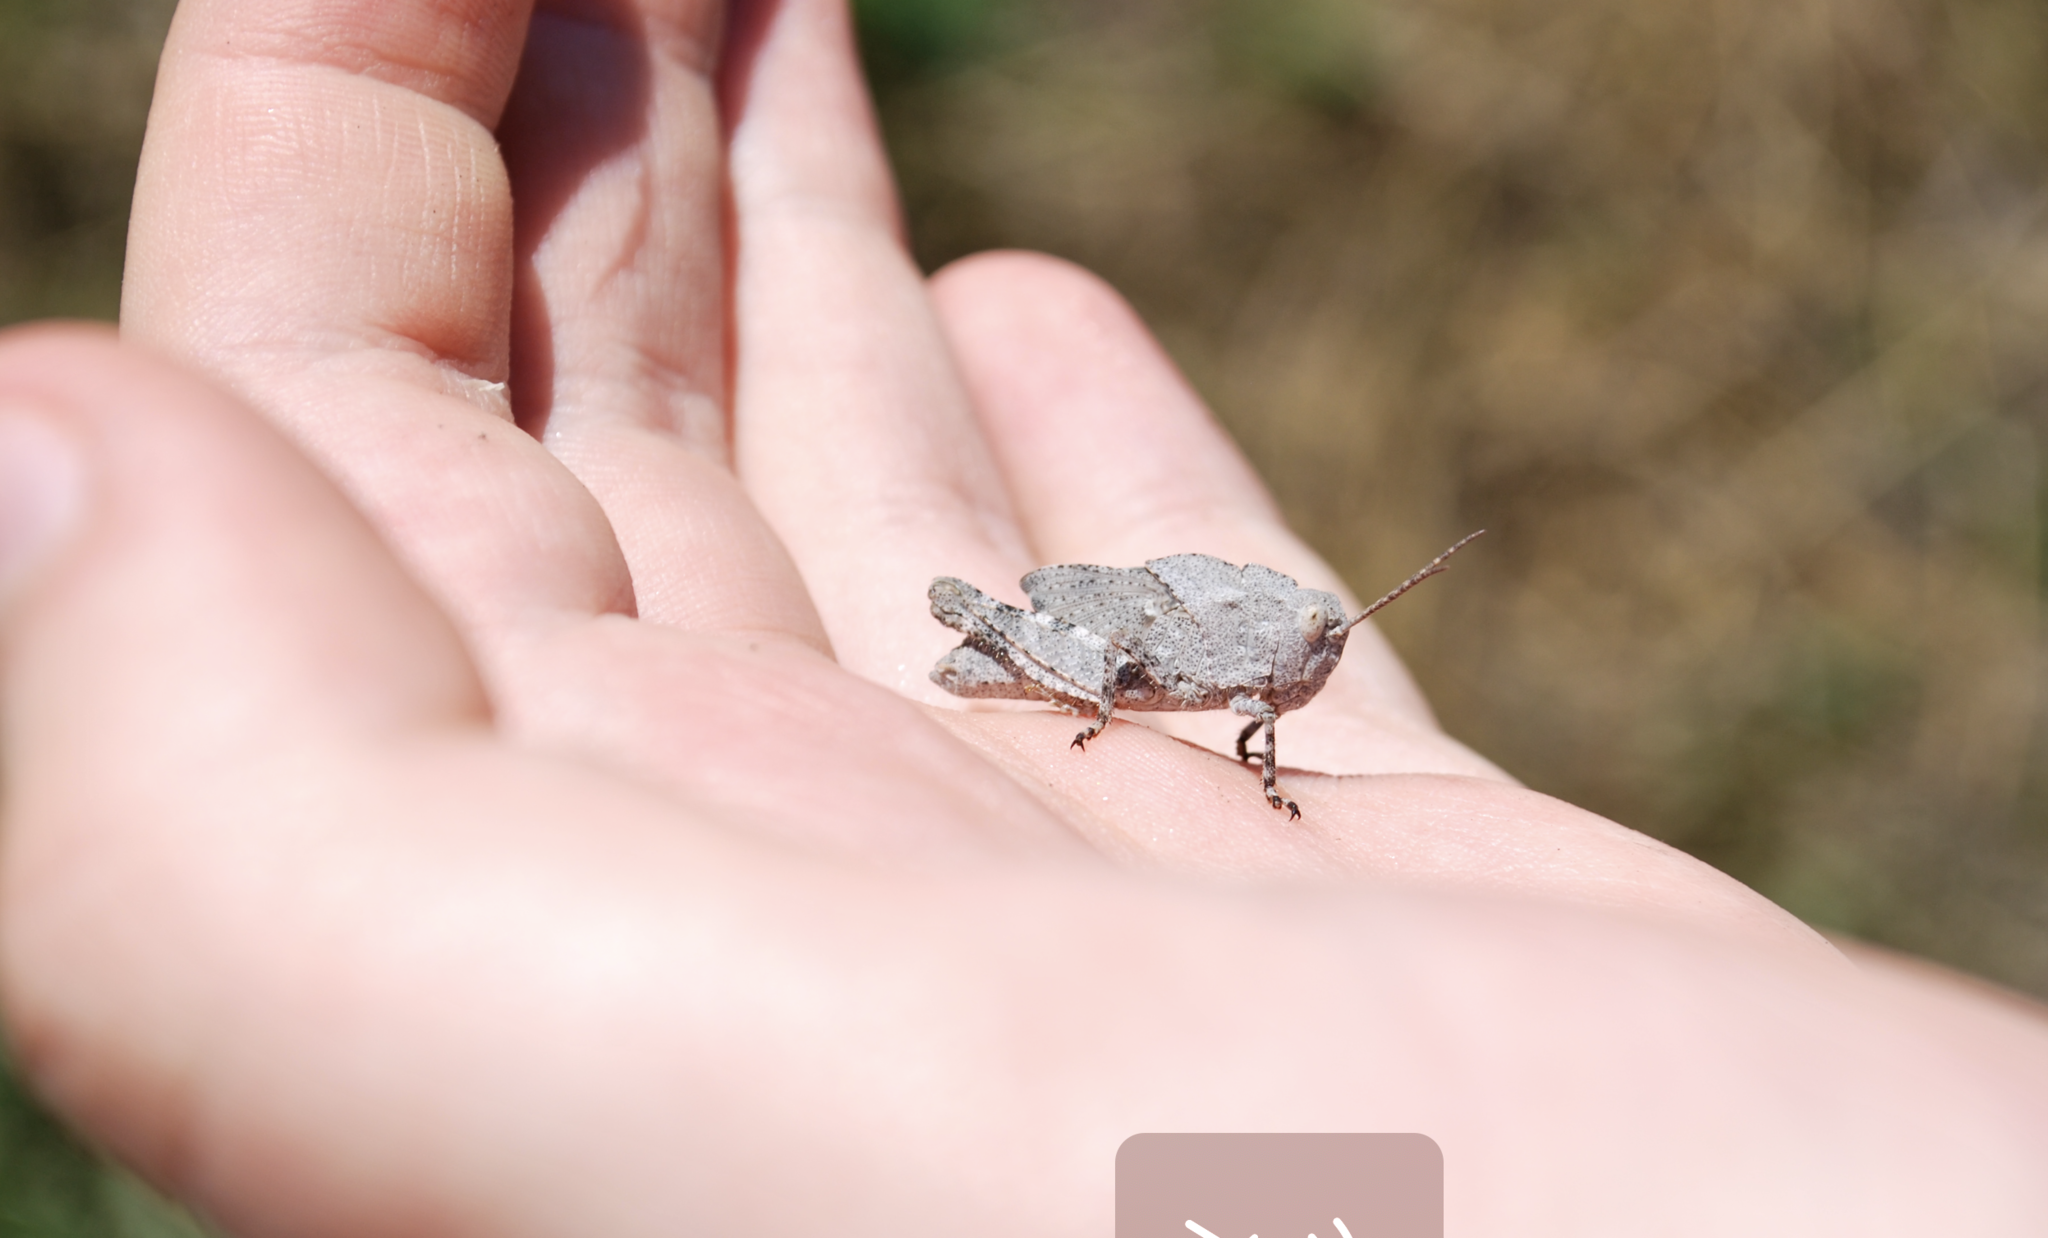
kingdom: Animalia
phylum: Arthropoda
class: Insecta
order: Orthoptera
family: Acrididae
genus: Dissosteira
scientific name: Dissosteira carolina
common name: Carolina grasshopper
